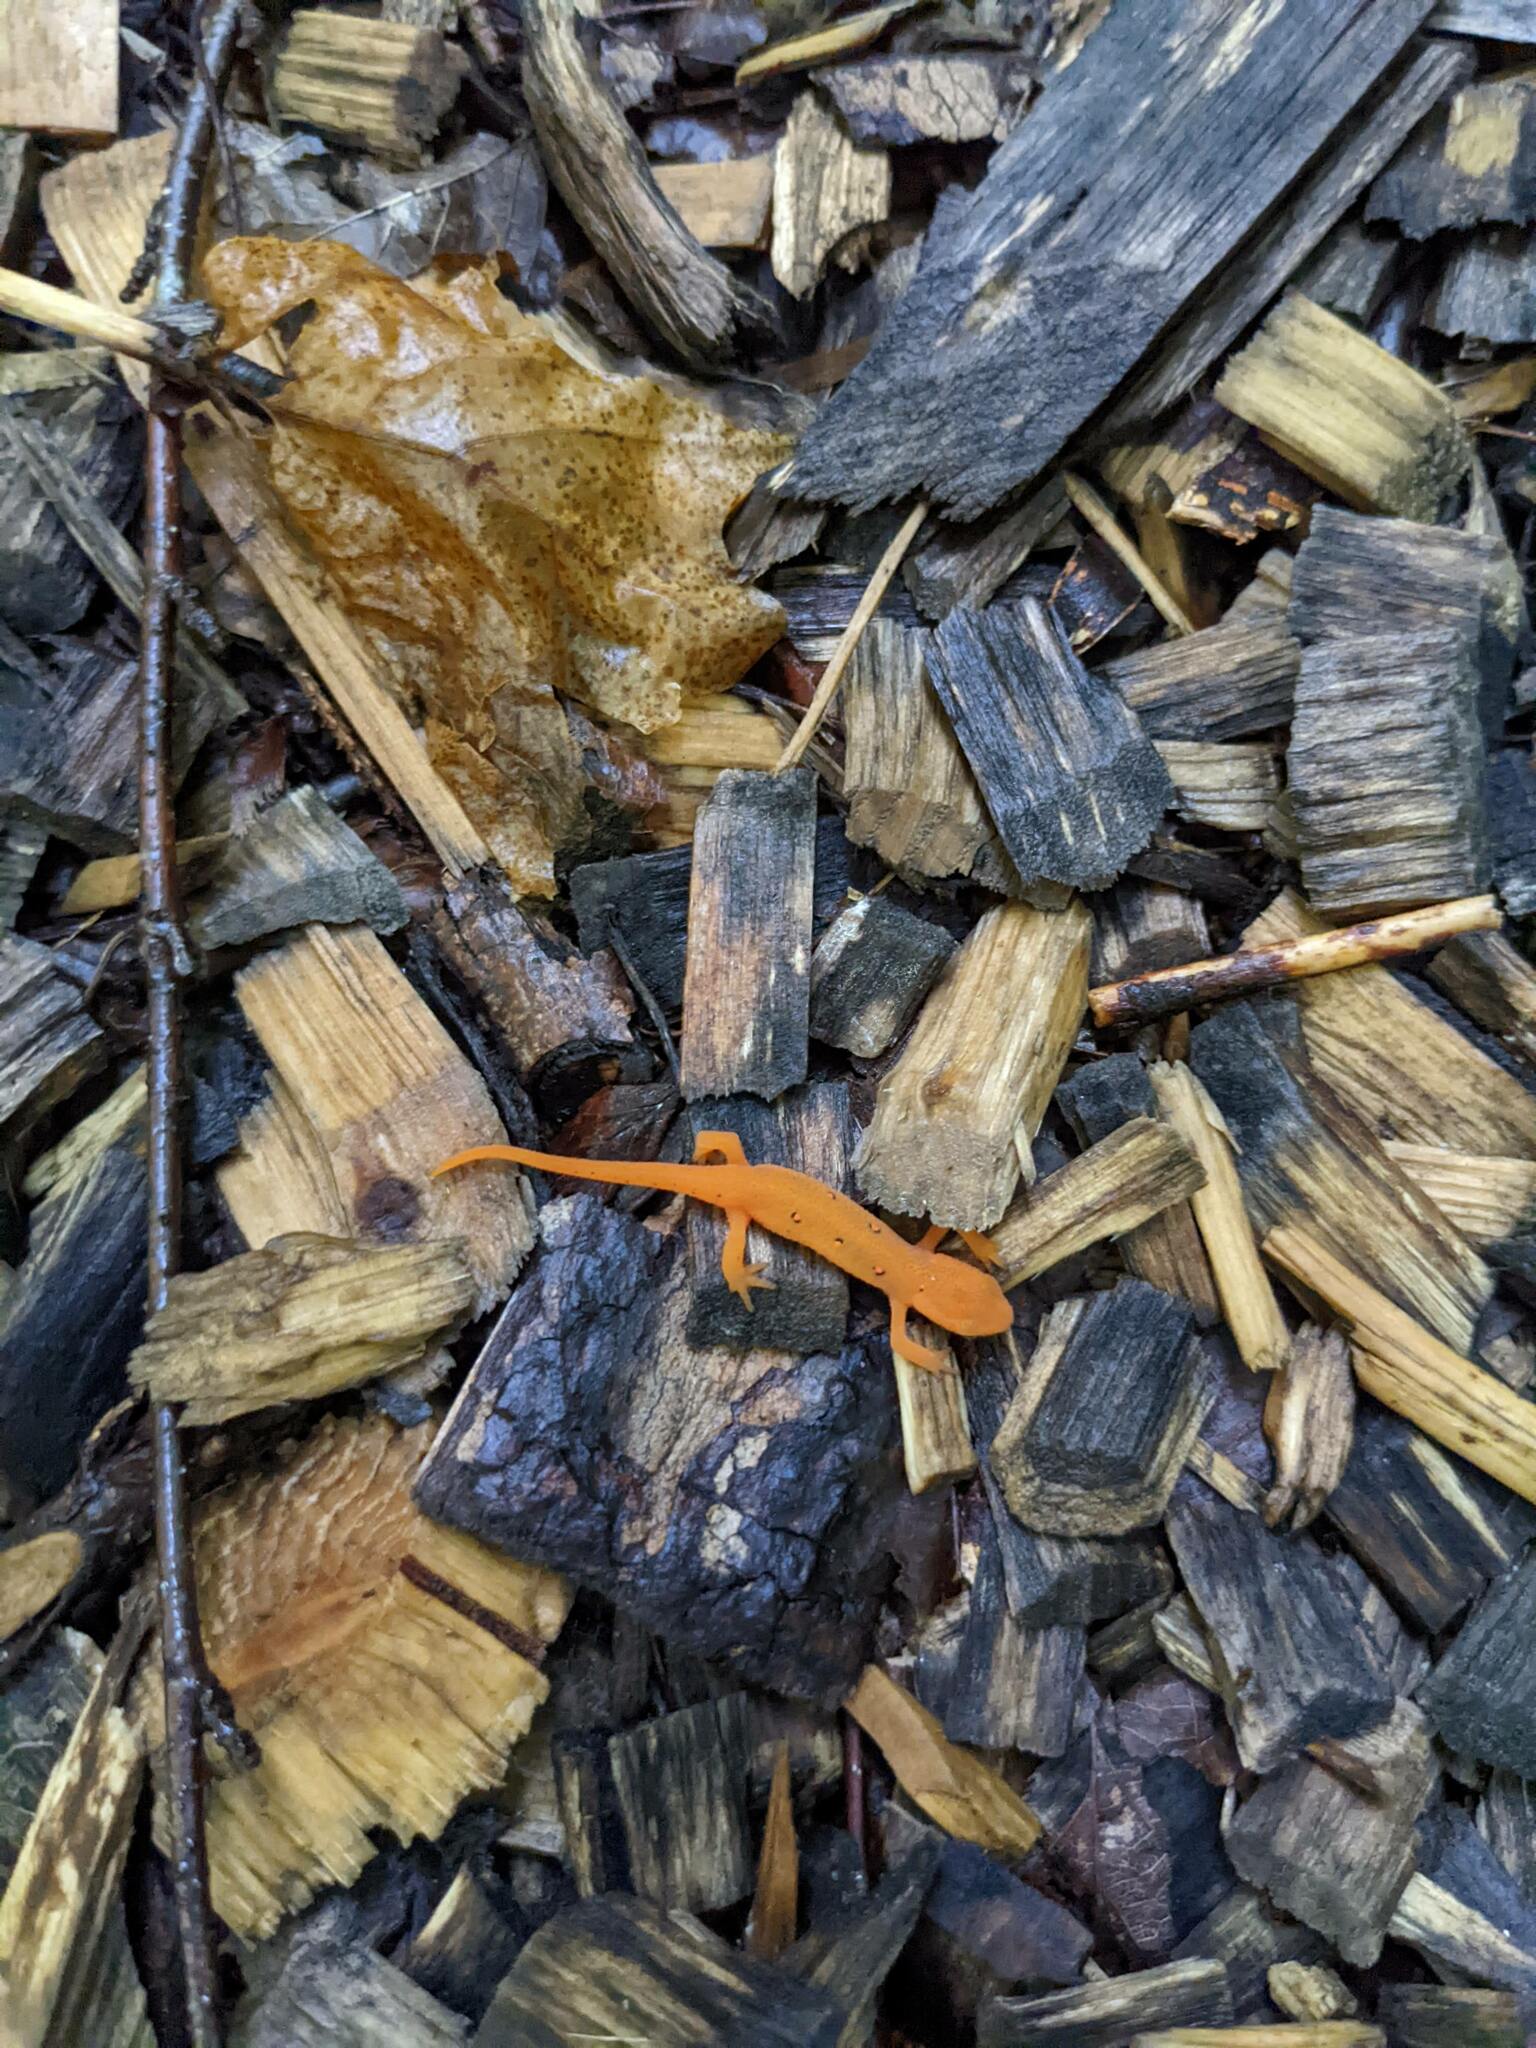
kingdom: Animalia
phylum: Chordata
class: Amphibia
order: Caudata
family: Salamandridae
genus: Notophthalmus
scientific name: Notophthalmus viridescens
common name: Eastern newt
